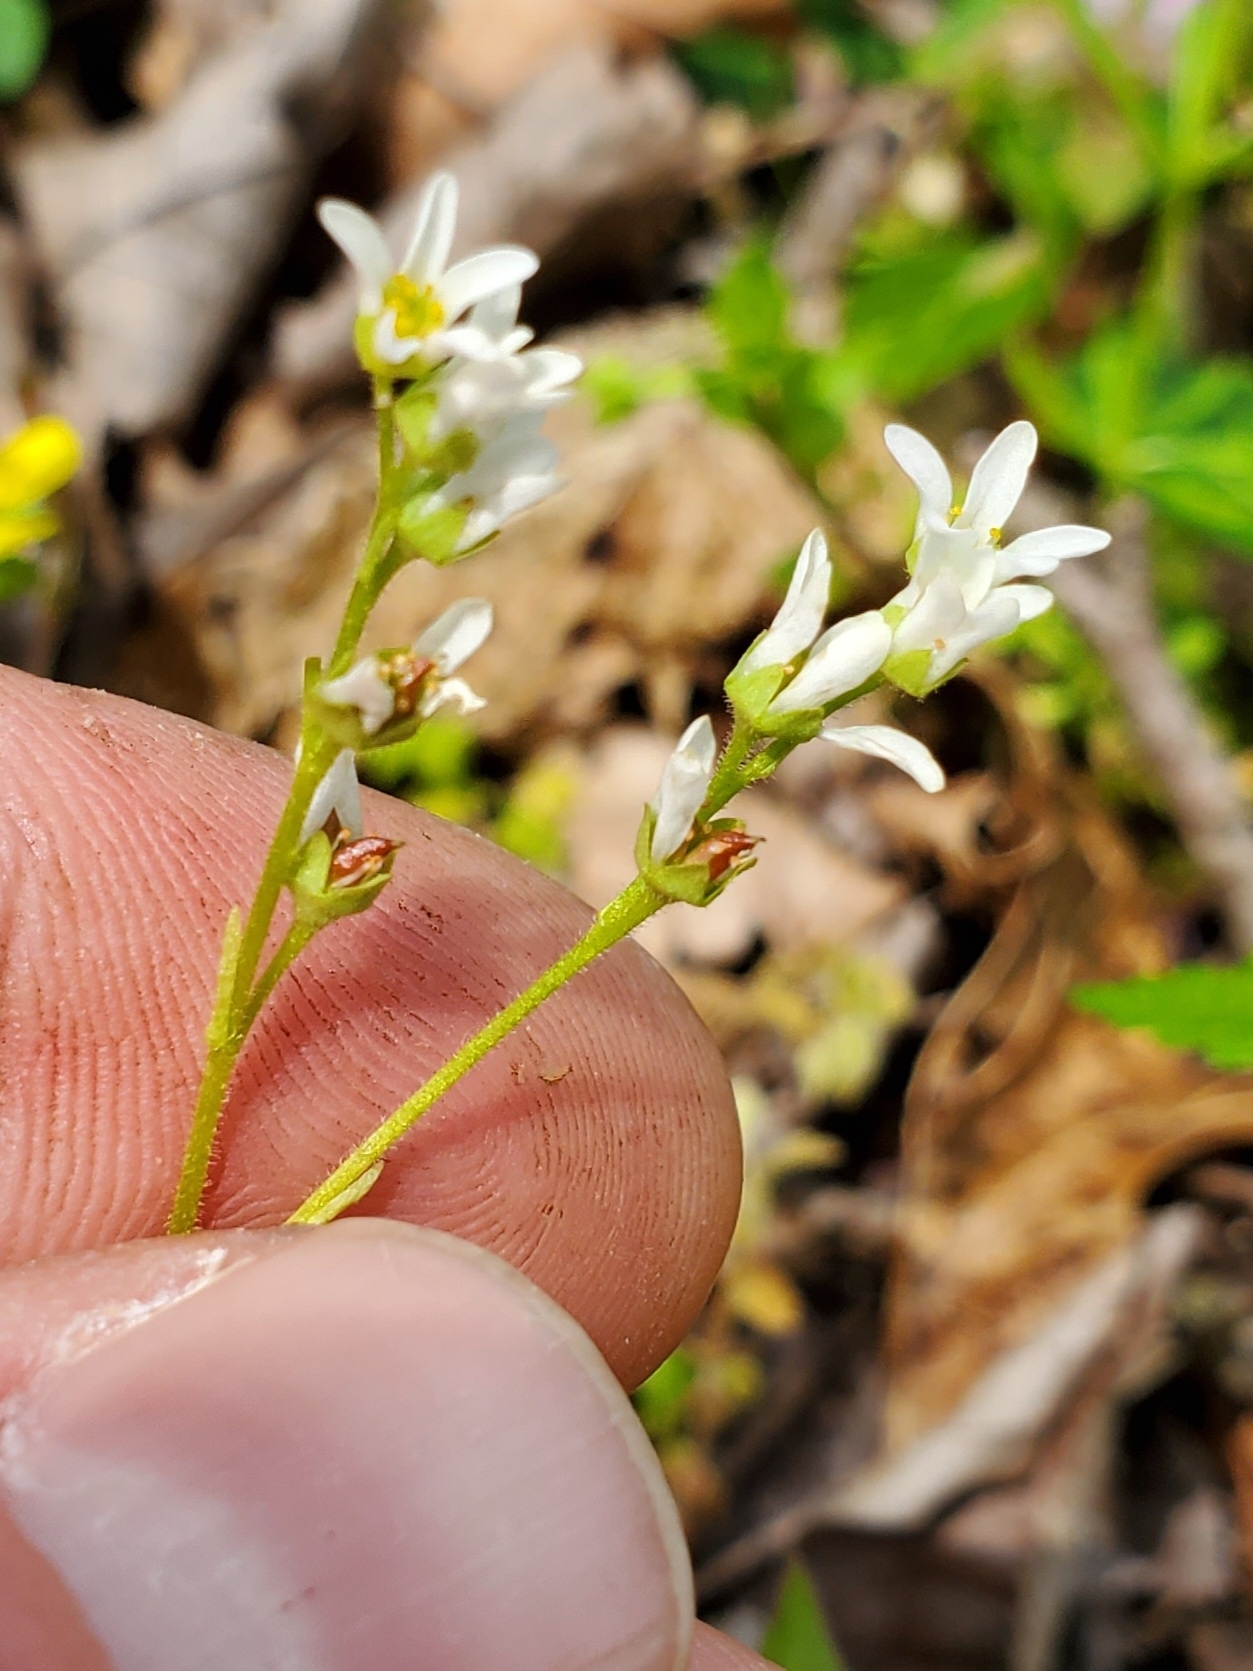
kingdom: Plantae
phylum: Tracheophyta
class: Magnoliopsida
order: Saxifragales
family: Saxifragaceae
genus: Micranthes
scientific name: Micranthes virginiensis
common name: Early saxifrage
